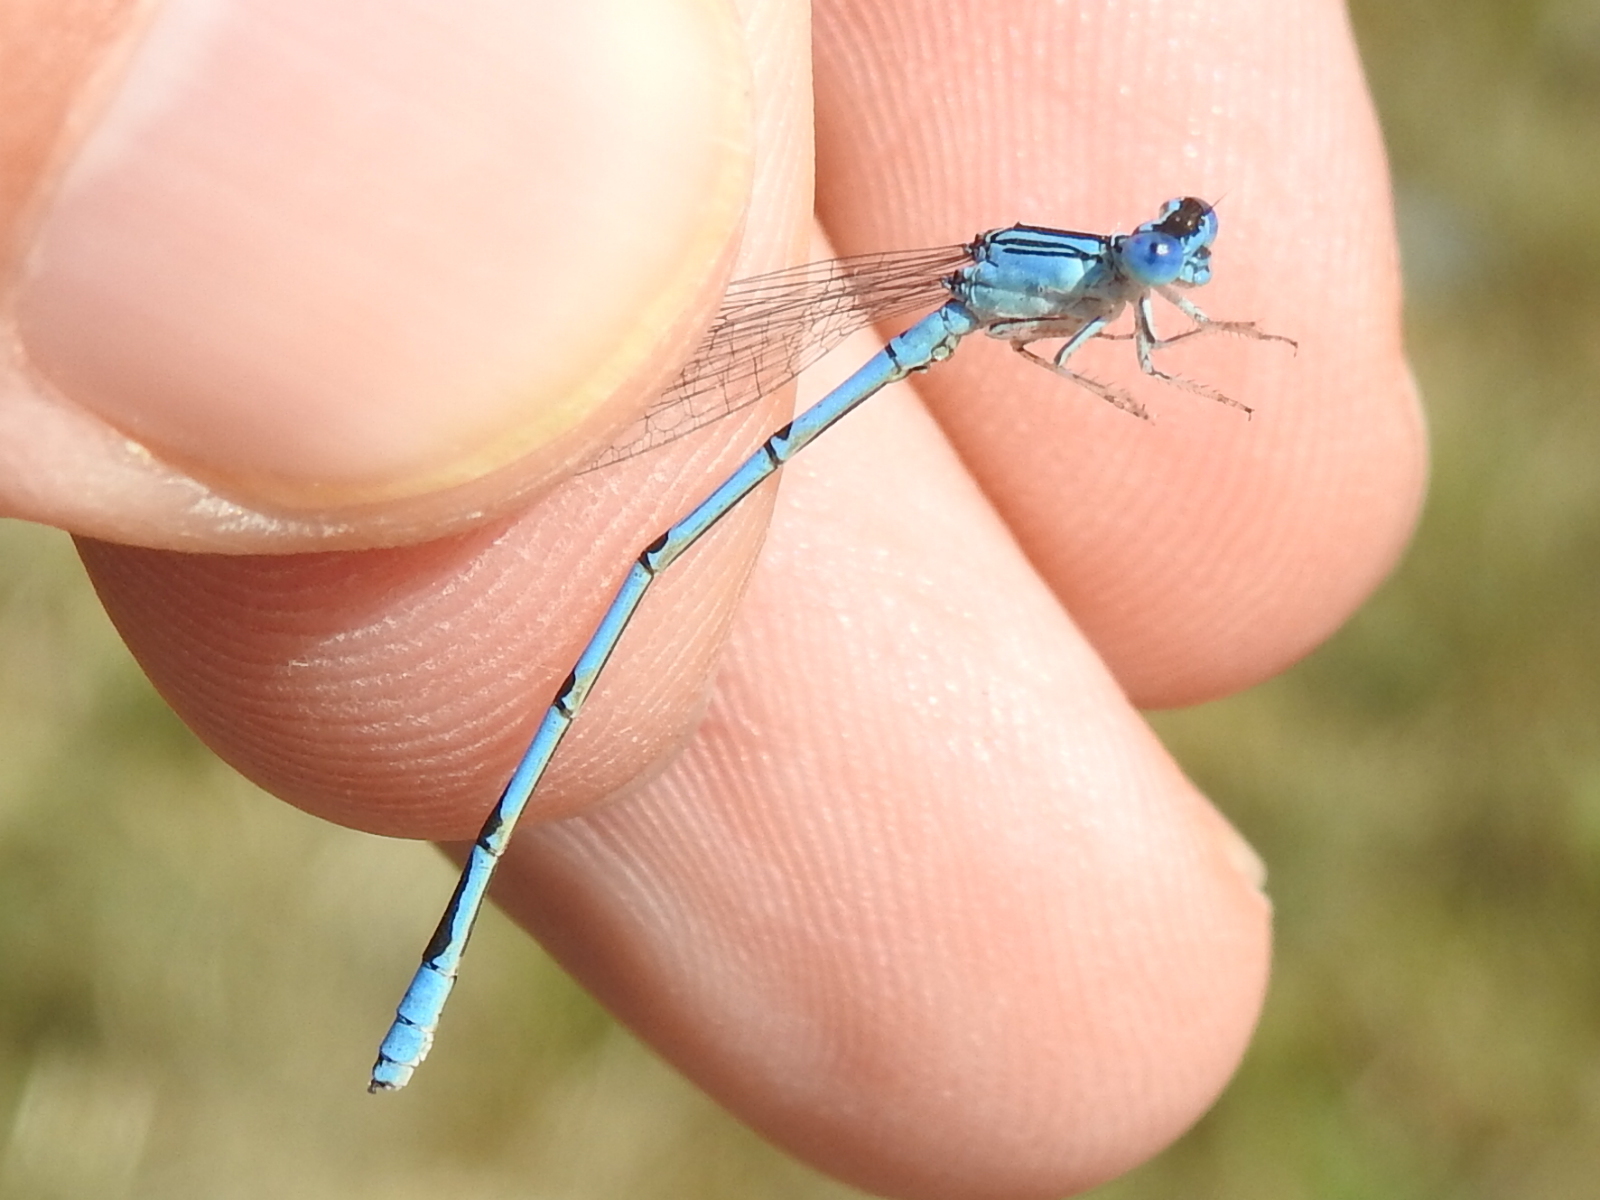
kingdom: Animalia
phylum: Arthropoda
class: Insecta
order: Odonata
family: Coenagrionidae
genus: Enallagma
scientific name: Enallagma basidens
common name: Double-striped bluet
